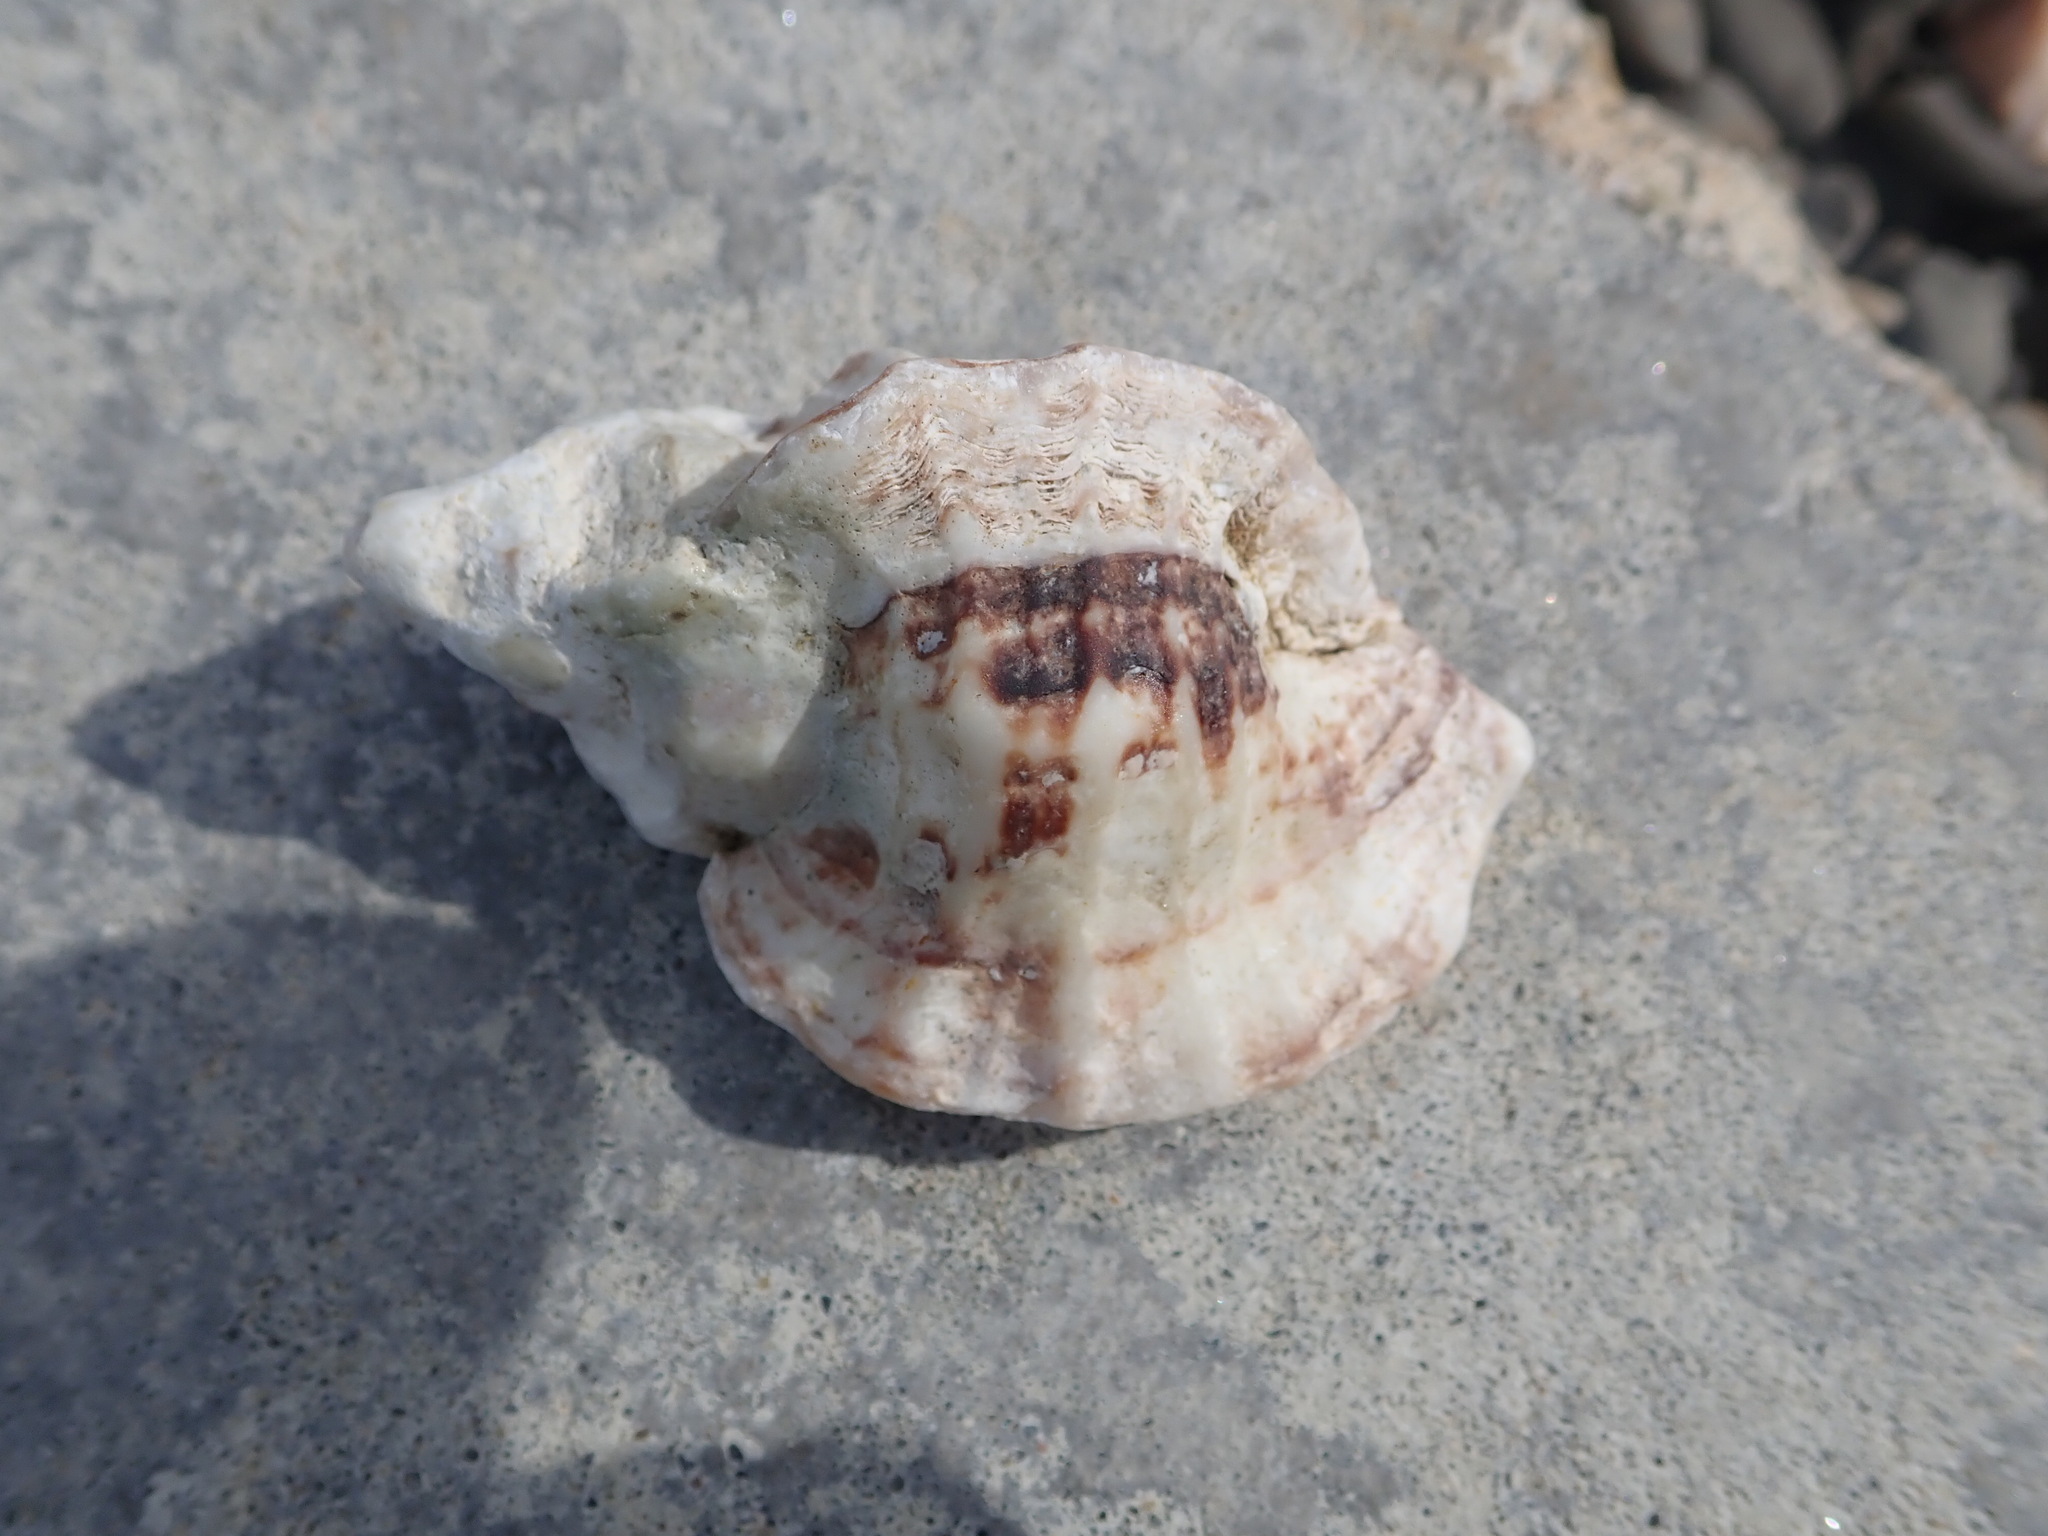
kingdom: Animalia
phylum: Mollusca
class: Gastropoda
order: Neogastropoda
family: Muricidae
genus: Ceratostoma
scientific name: Ceratostoma foliatum
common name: Foliate thorn purpura
